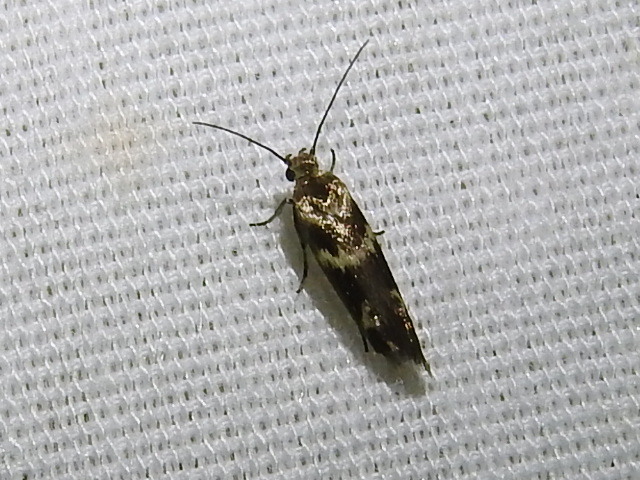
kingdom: Animalia
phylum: Arthropoda
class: Insecta
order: Lepidoptera
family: Scythrididae
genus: Scythris
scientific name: Scythris trivinctella
